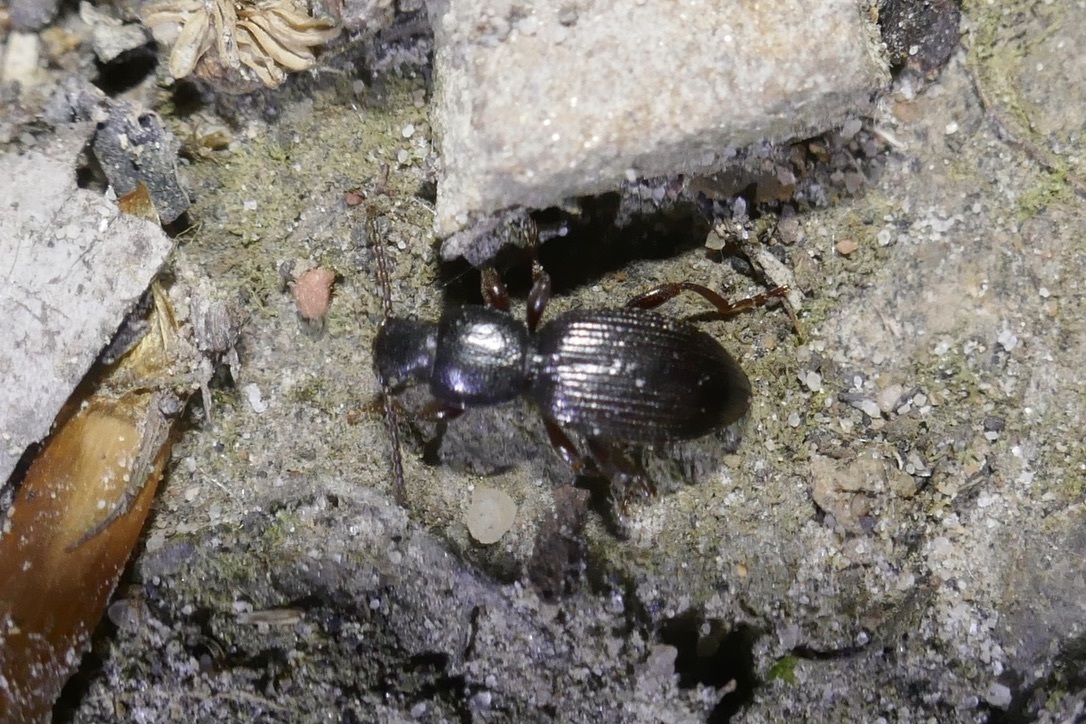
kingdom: Animalia
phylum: Arthropoda
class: Insecta
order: Coleoptera
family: Tenebrionidae
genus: Laena
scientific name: Laena viennensis
